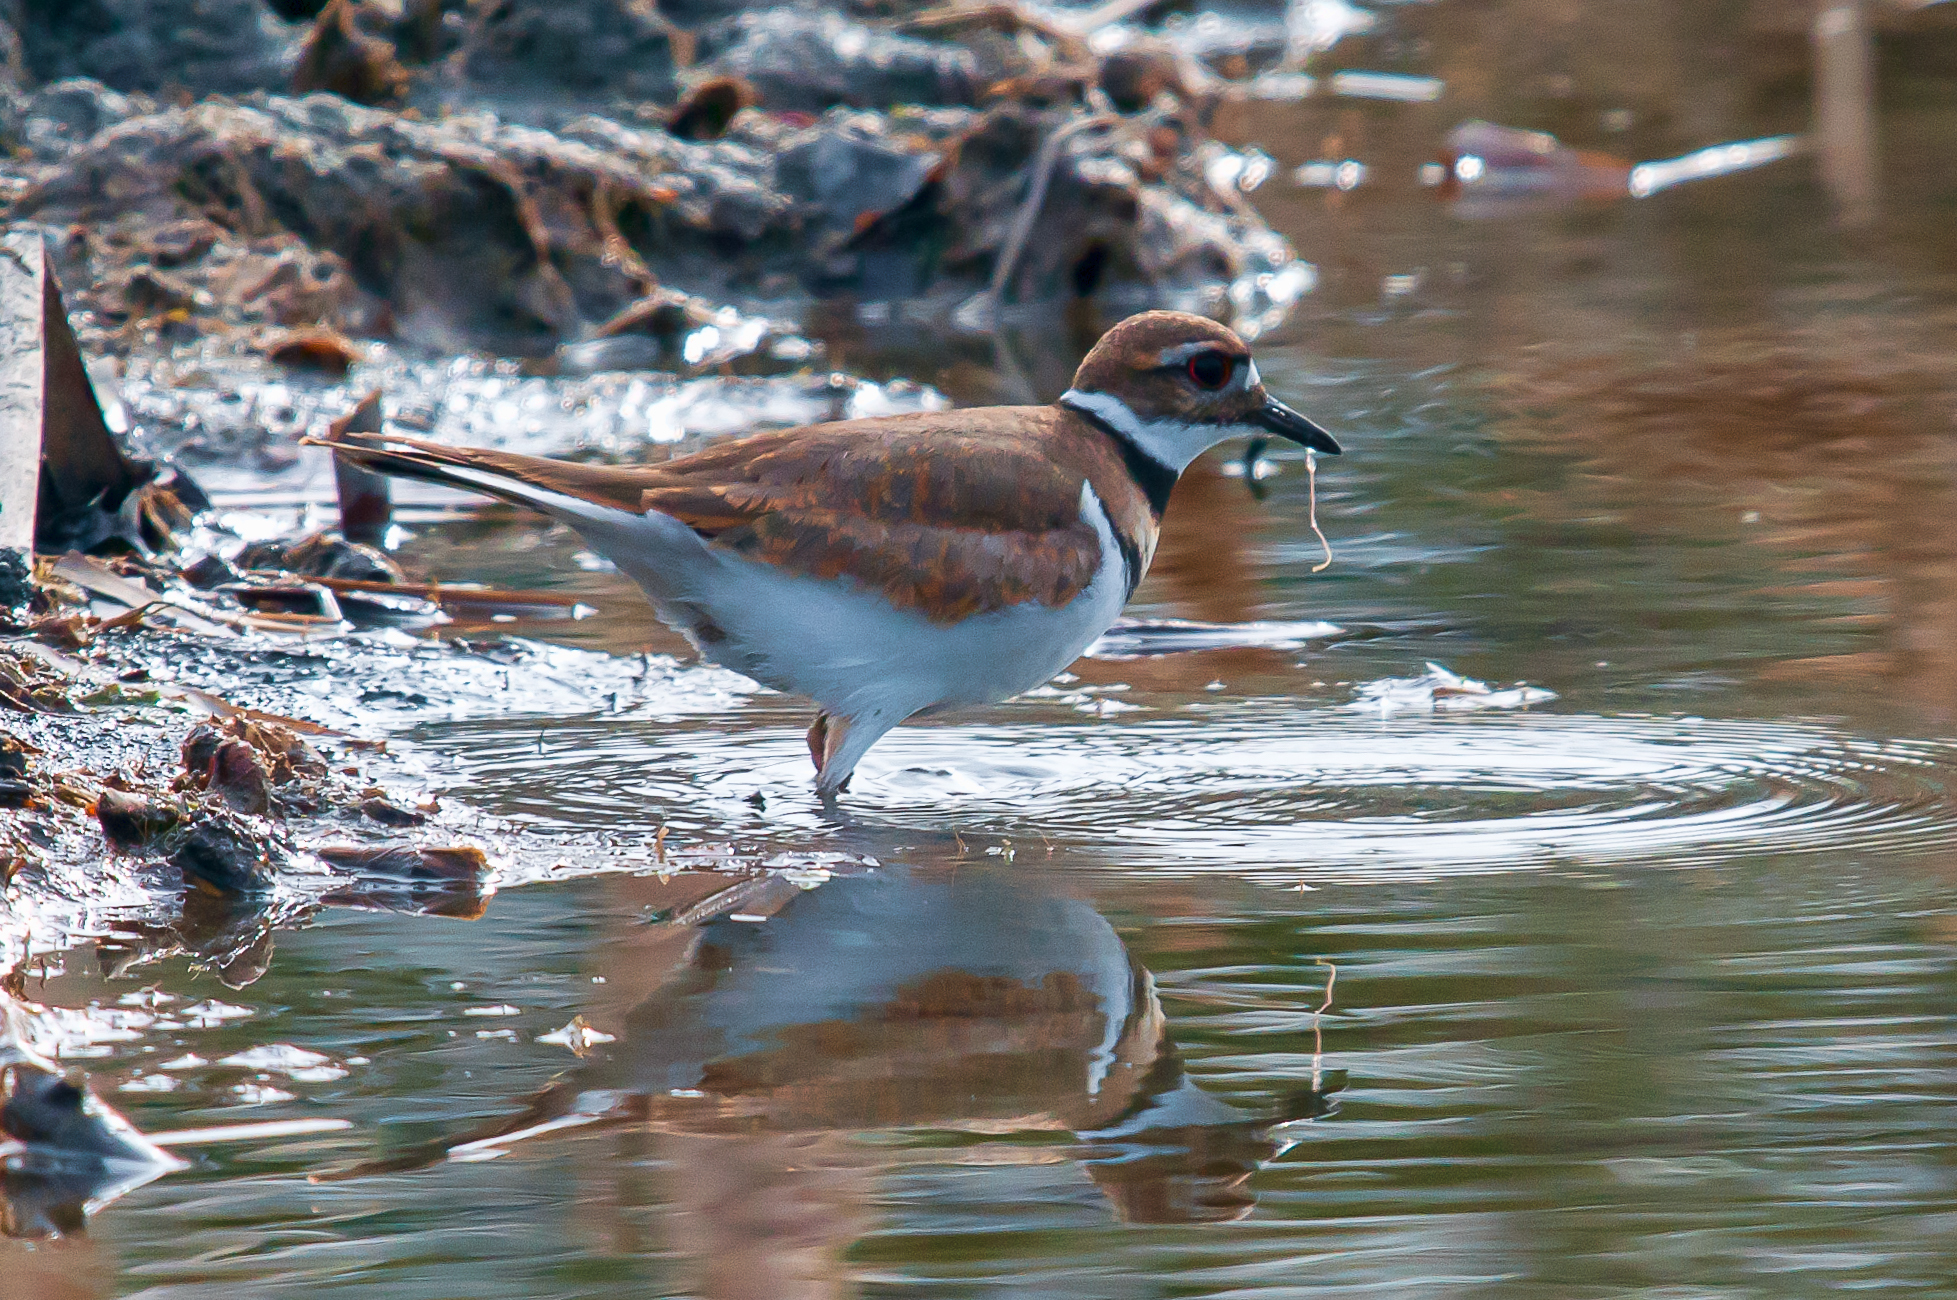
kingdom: Animalia
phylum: Chordata
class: Aves
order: Charadriiformes
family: Charadriidae
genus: Charadrius
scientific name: Charadrius vociferus
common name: Killdeer
